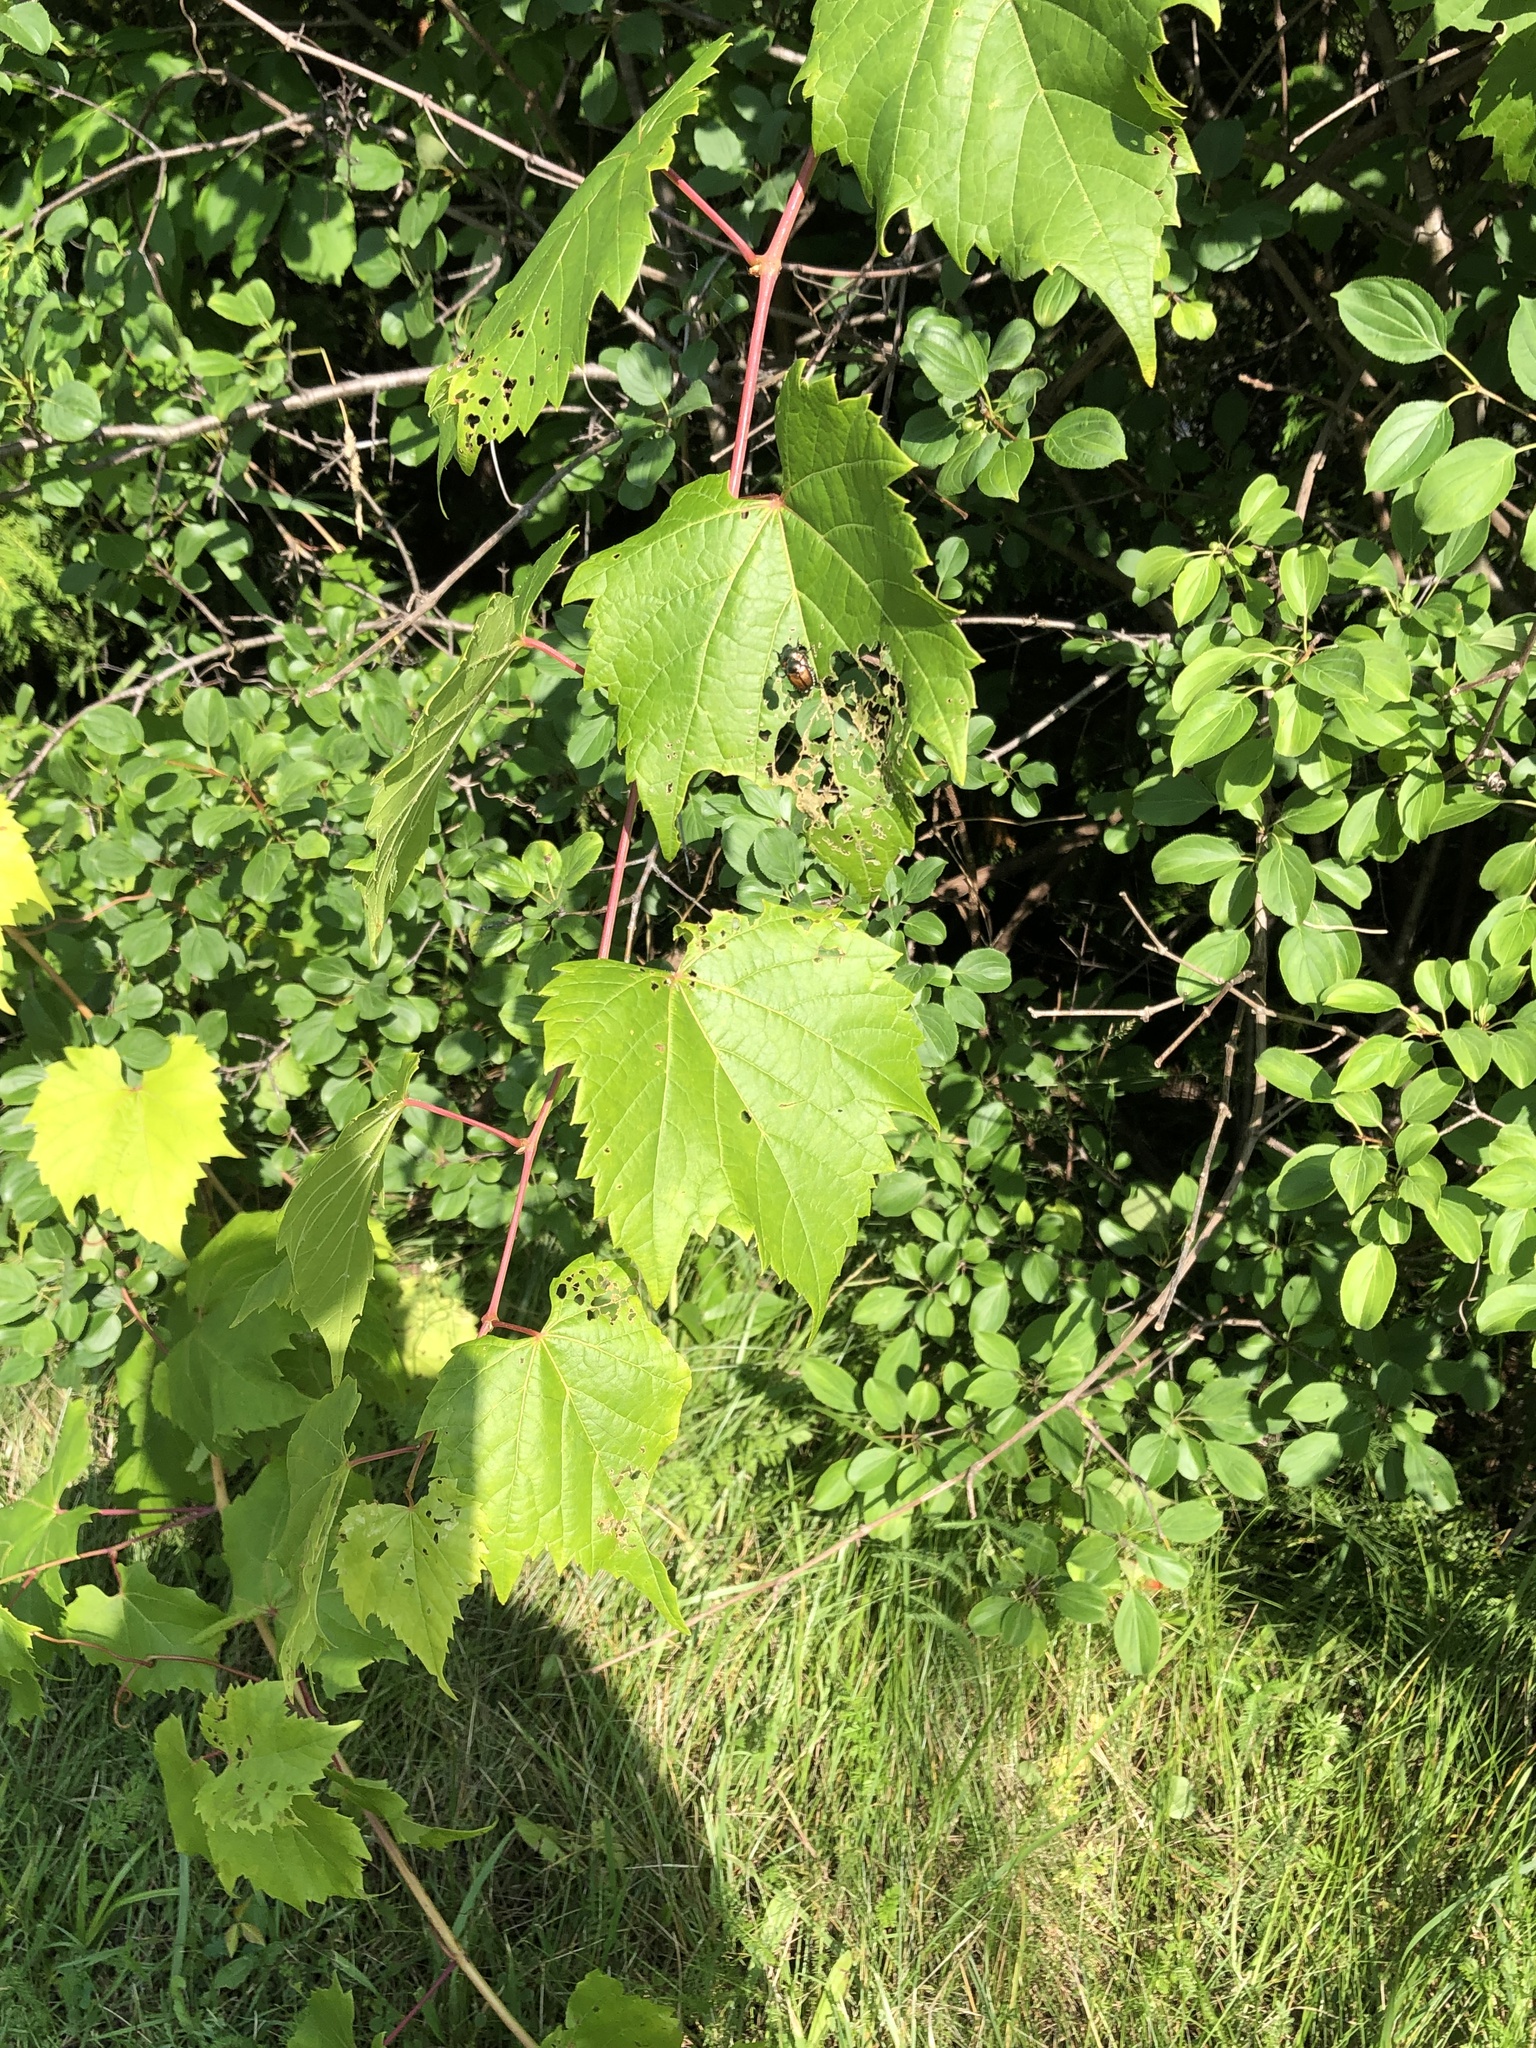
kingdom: Plantae
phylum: Tracheophyta
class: Magnoliopsida
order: Vitales
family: Vitaceae
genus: Vitis
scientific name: Vitis riparia
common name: Frost grape
